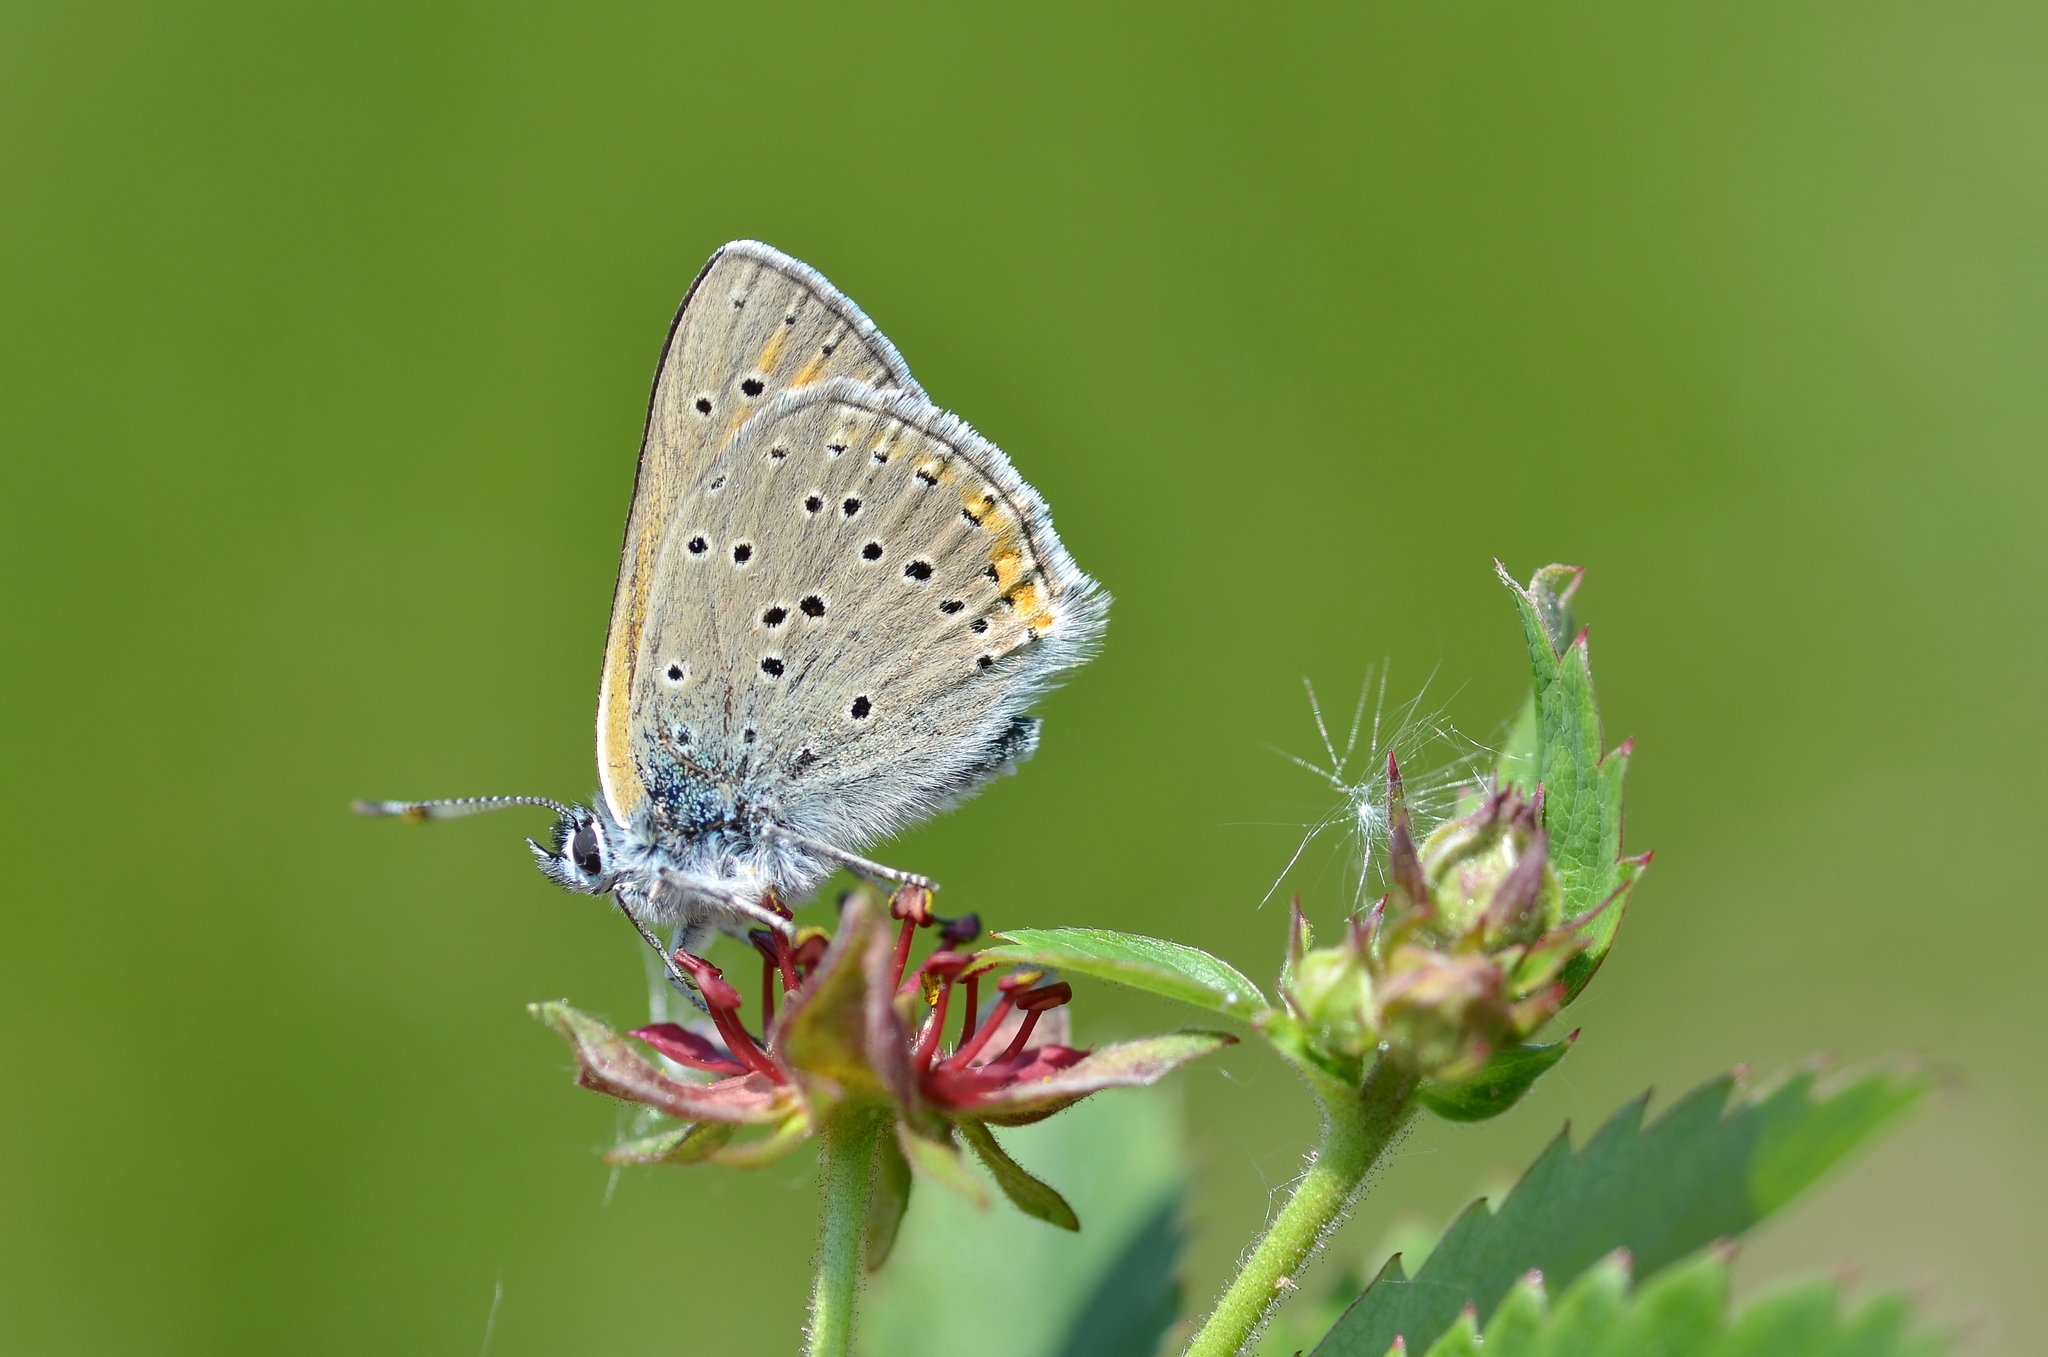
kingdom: Animalia
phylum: Arthropoda
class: Insecta
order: Lepidoptera
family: Lycaenidae
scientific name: Lycaenidae
